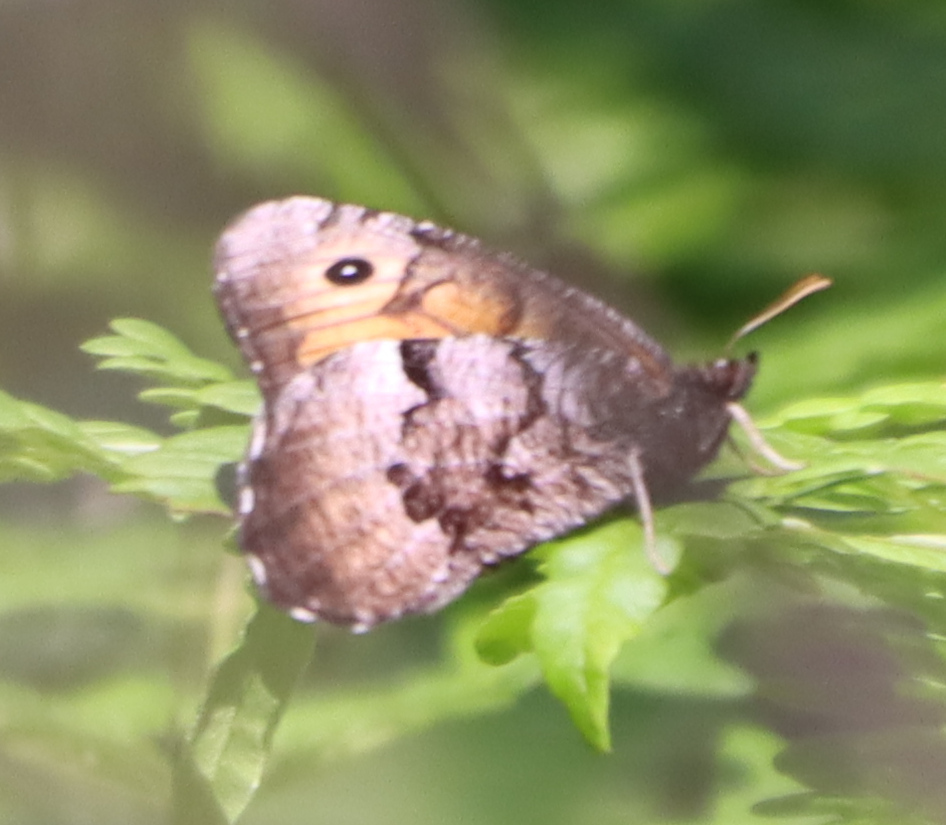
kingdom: Animalia
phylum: Arthropoda
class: Insecta
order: Lepidoptera
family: Nymphalidae
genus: Oeneis
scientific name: Oeneis macounii
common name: Macoun's arctic
